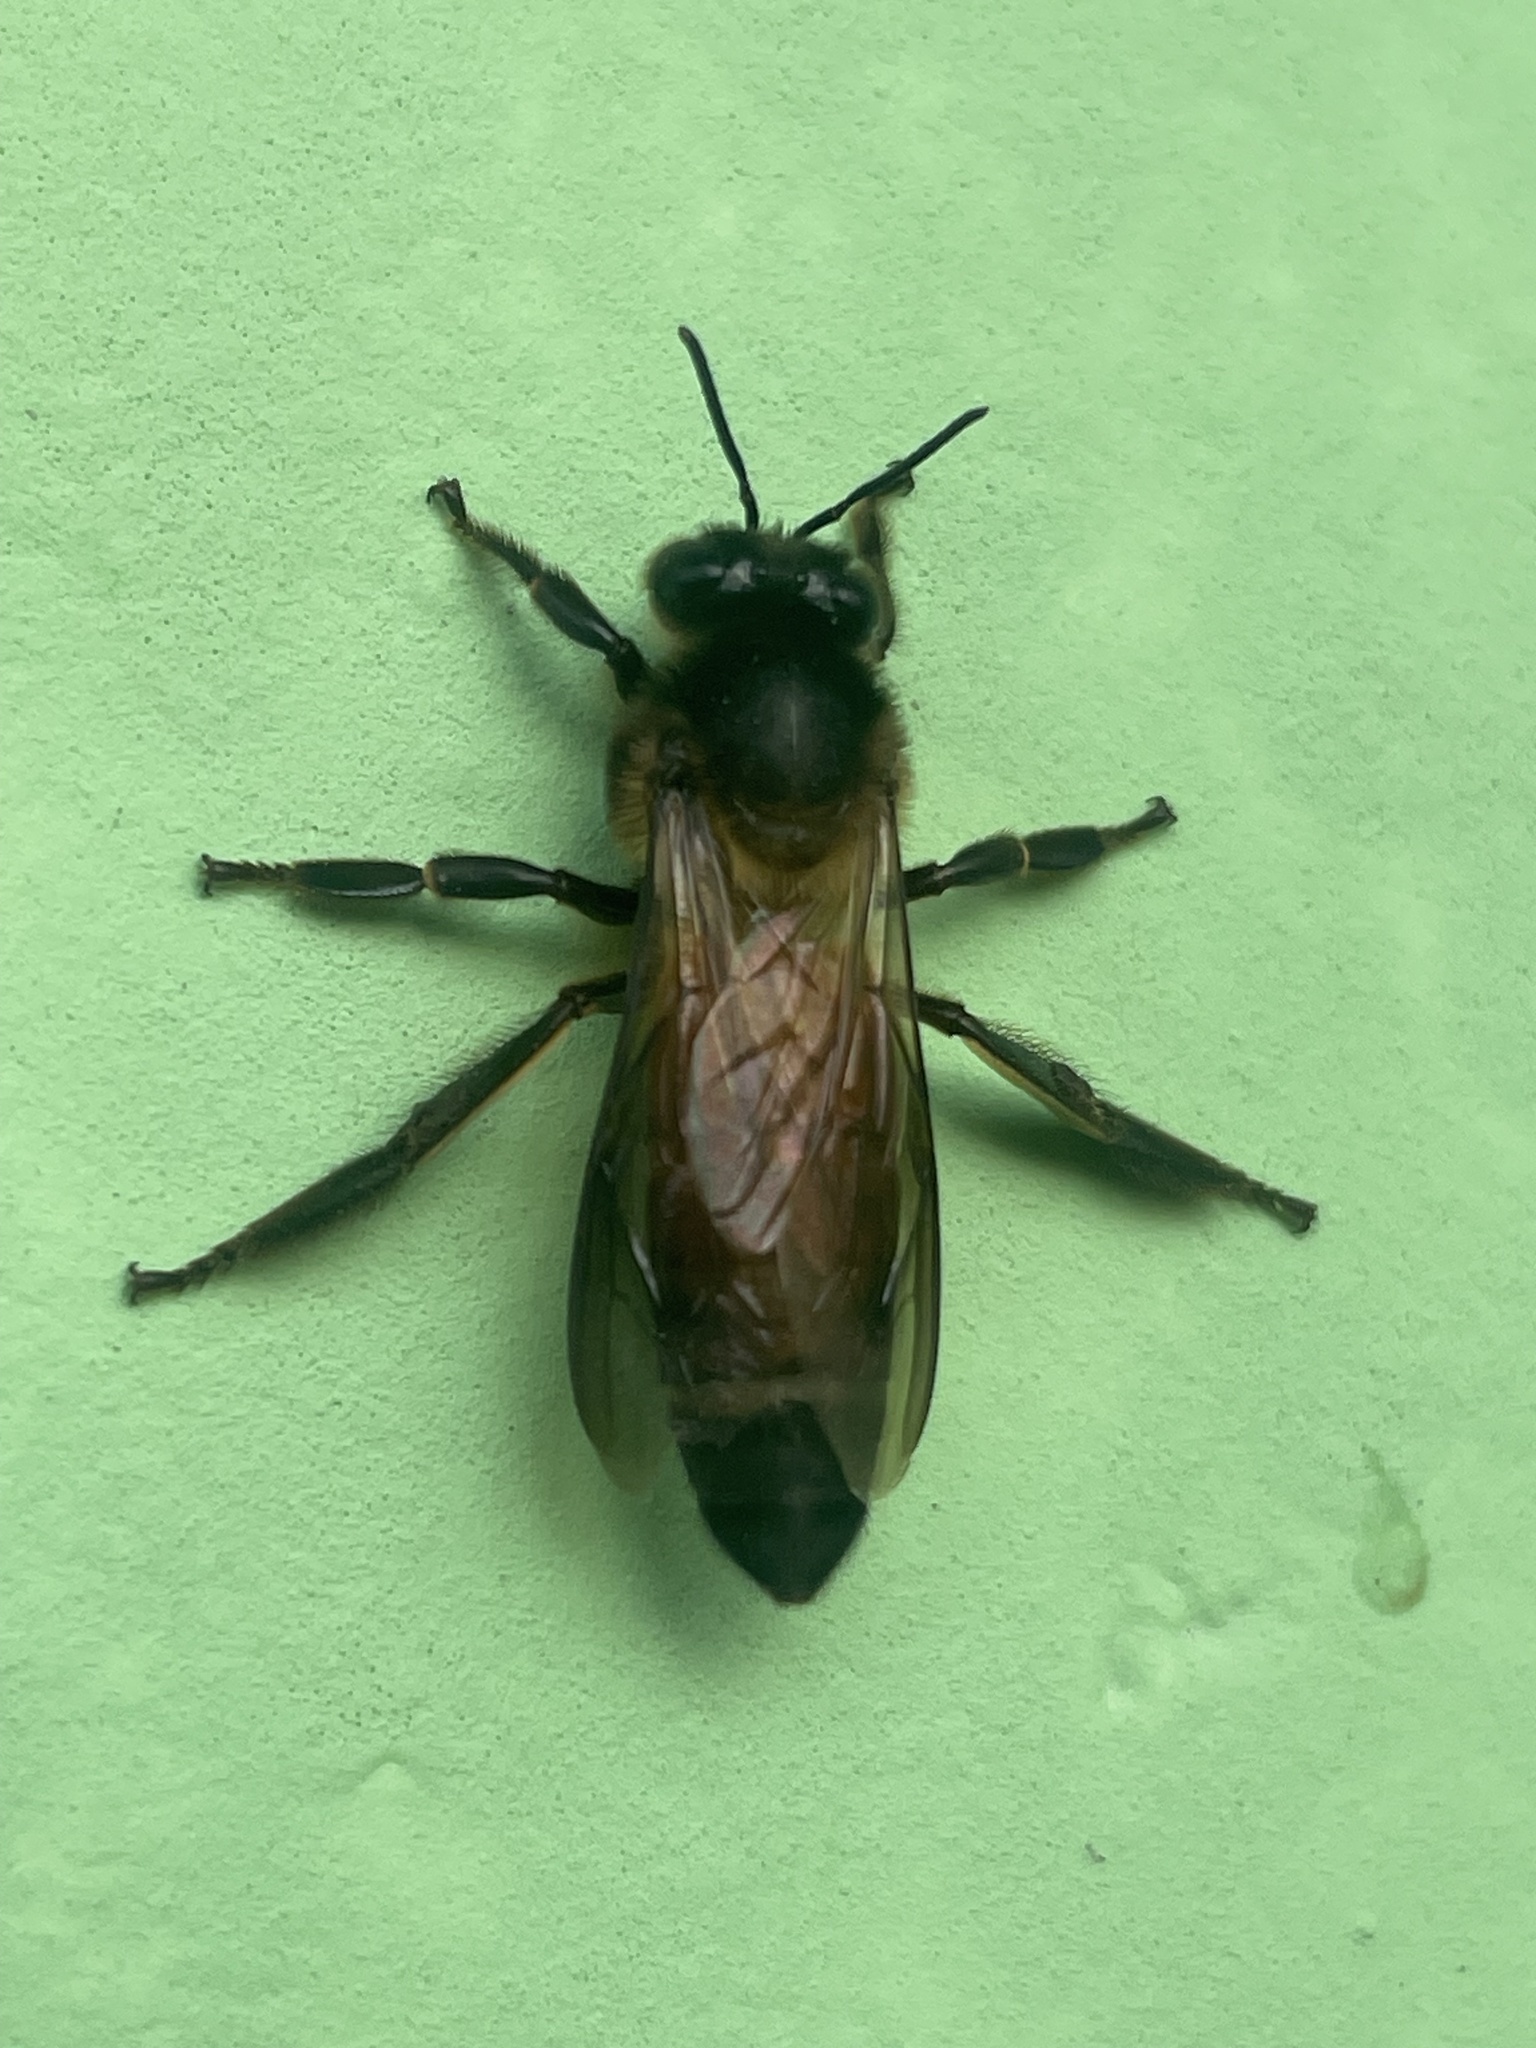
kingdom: Animalia
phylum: Arthropoda
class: Insecta
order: Hymenoptera
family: Apidae
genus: Apis
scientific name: Apis dorsata
